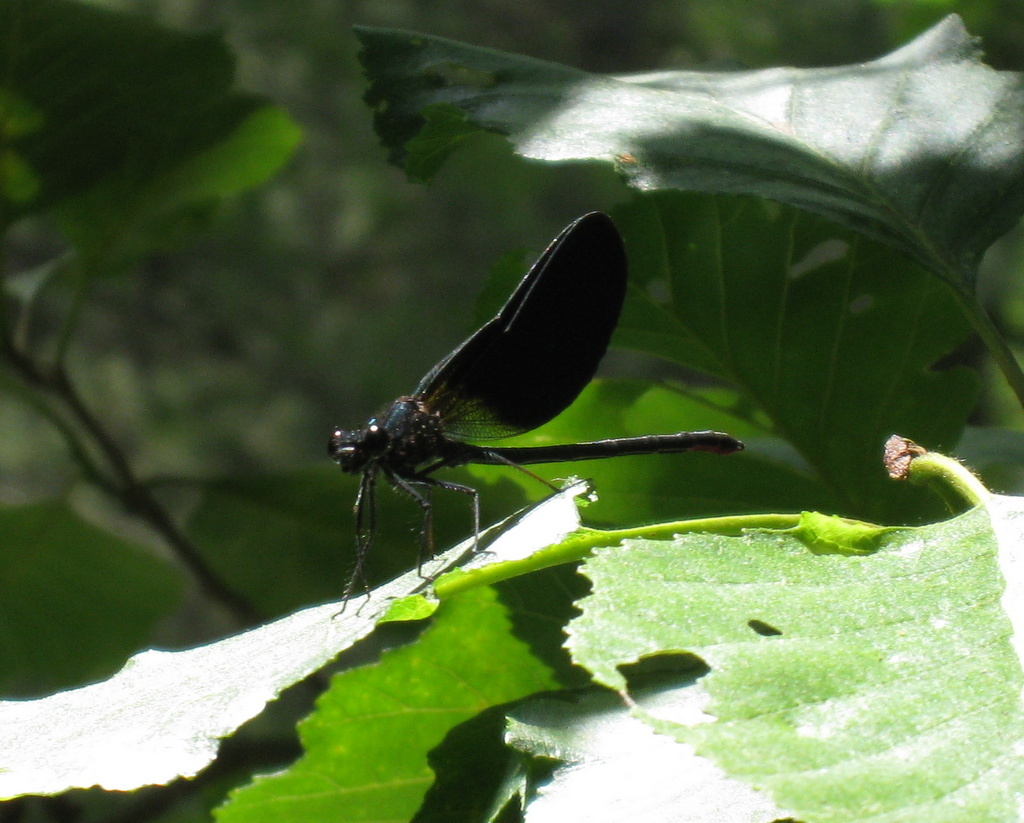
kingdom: Animalia
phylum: Arthropoda
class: Insecta
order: Odonata
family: Calopterygidae
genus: Calopteryx
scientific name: Calopteryx haemorrhoidalis
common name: Copper demoiselle
